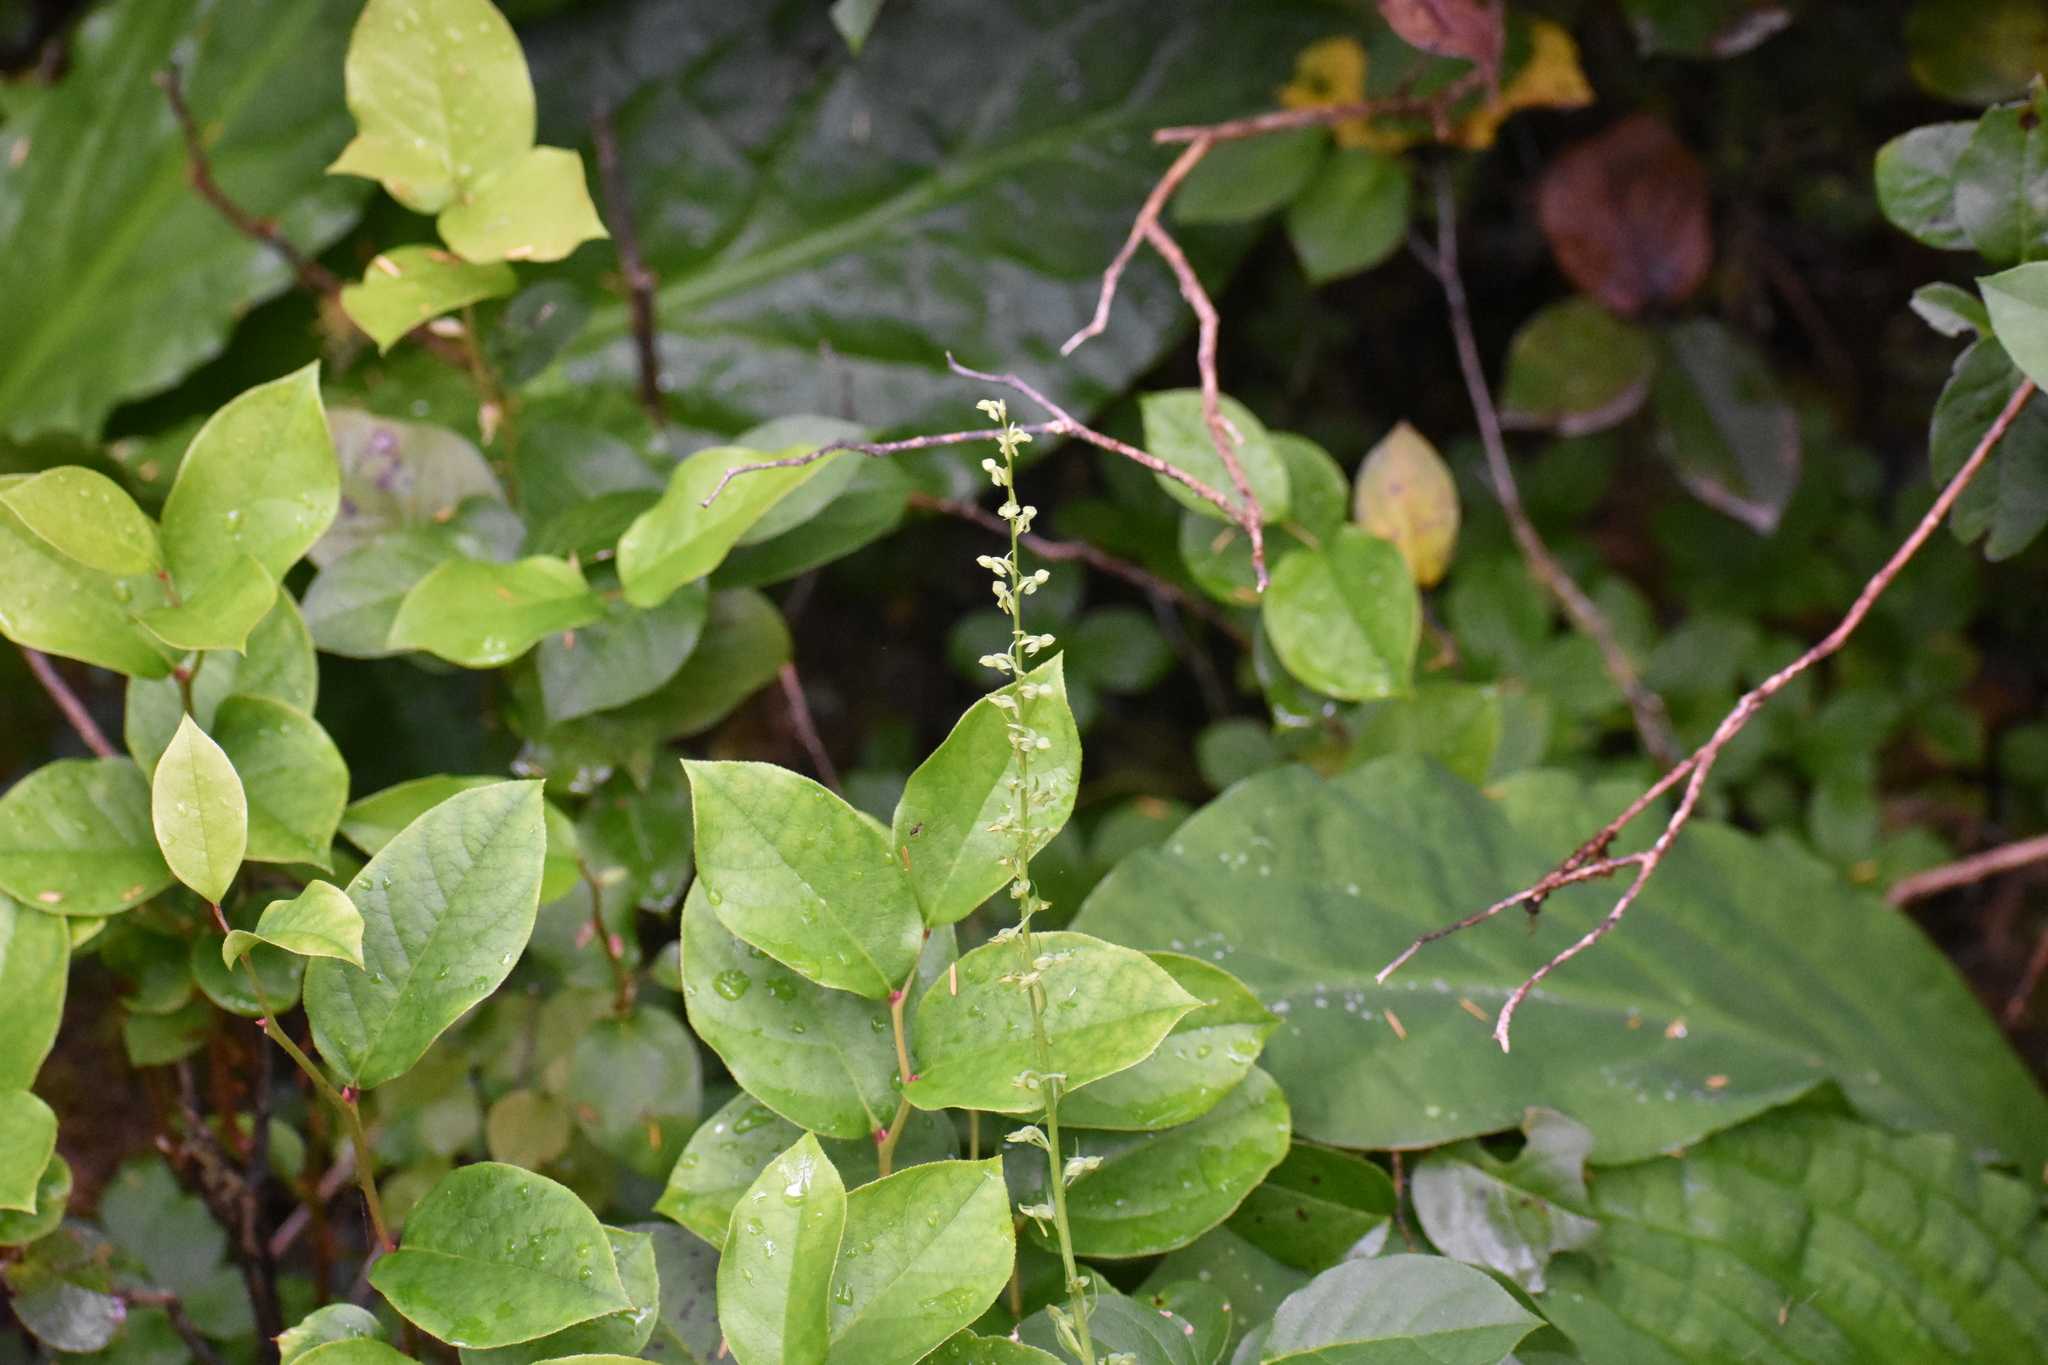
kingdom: Plantae
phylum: Tracheophyta
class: Liliopsida
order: Asparagales
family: Orchidaceae
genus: Platanthera
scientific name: Platanthera stricta
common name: Slender bog orchid
